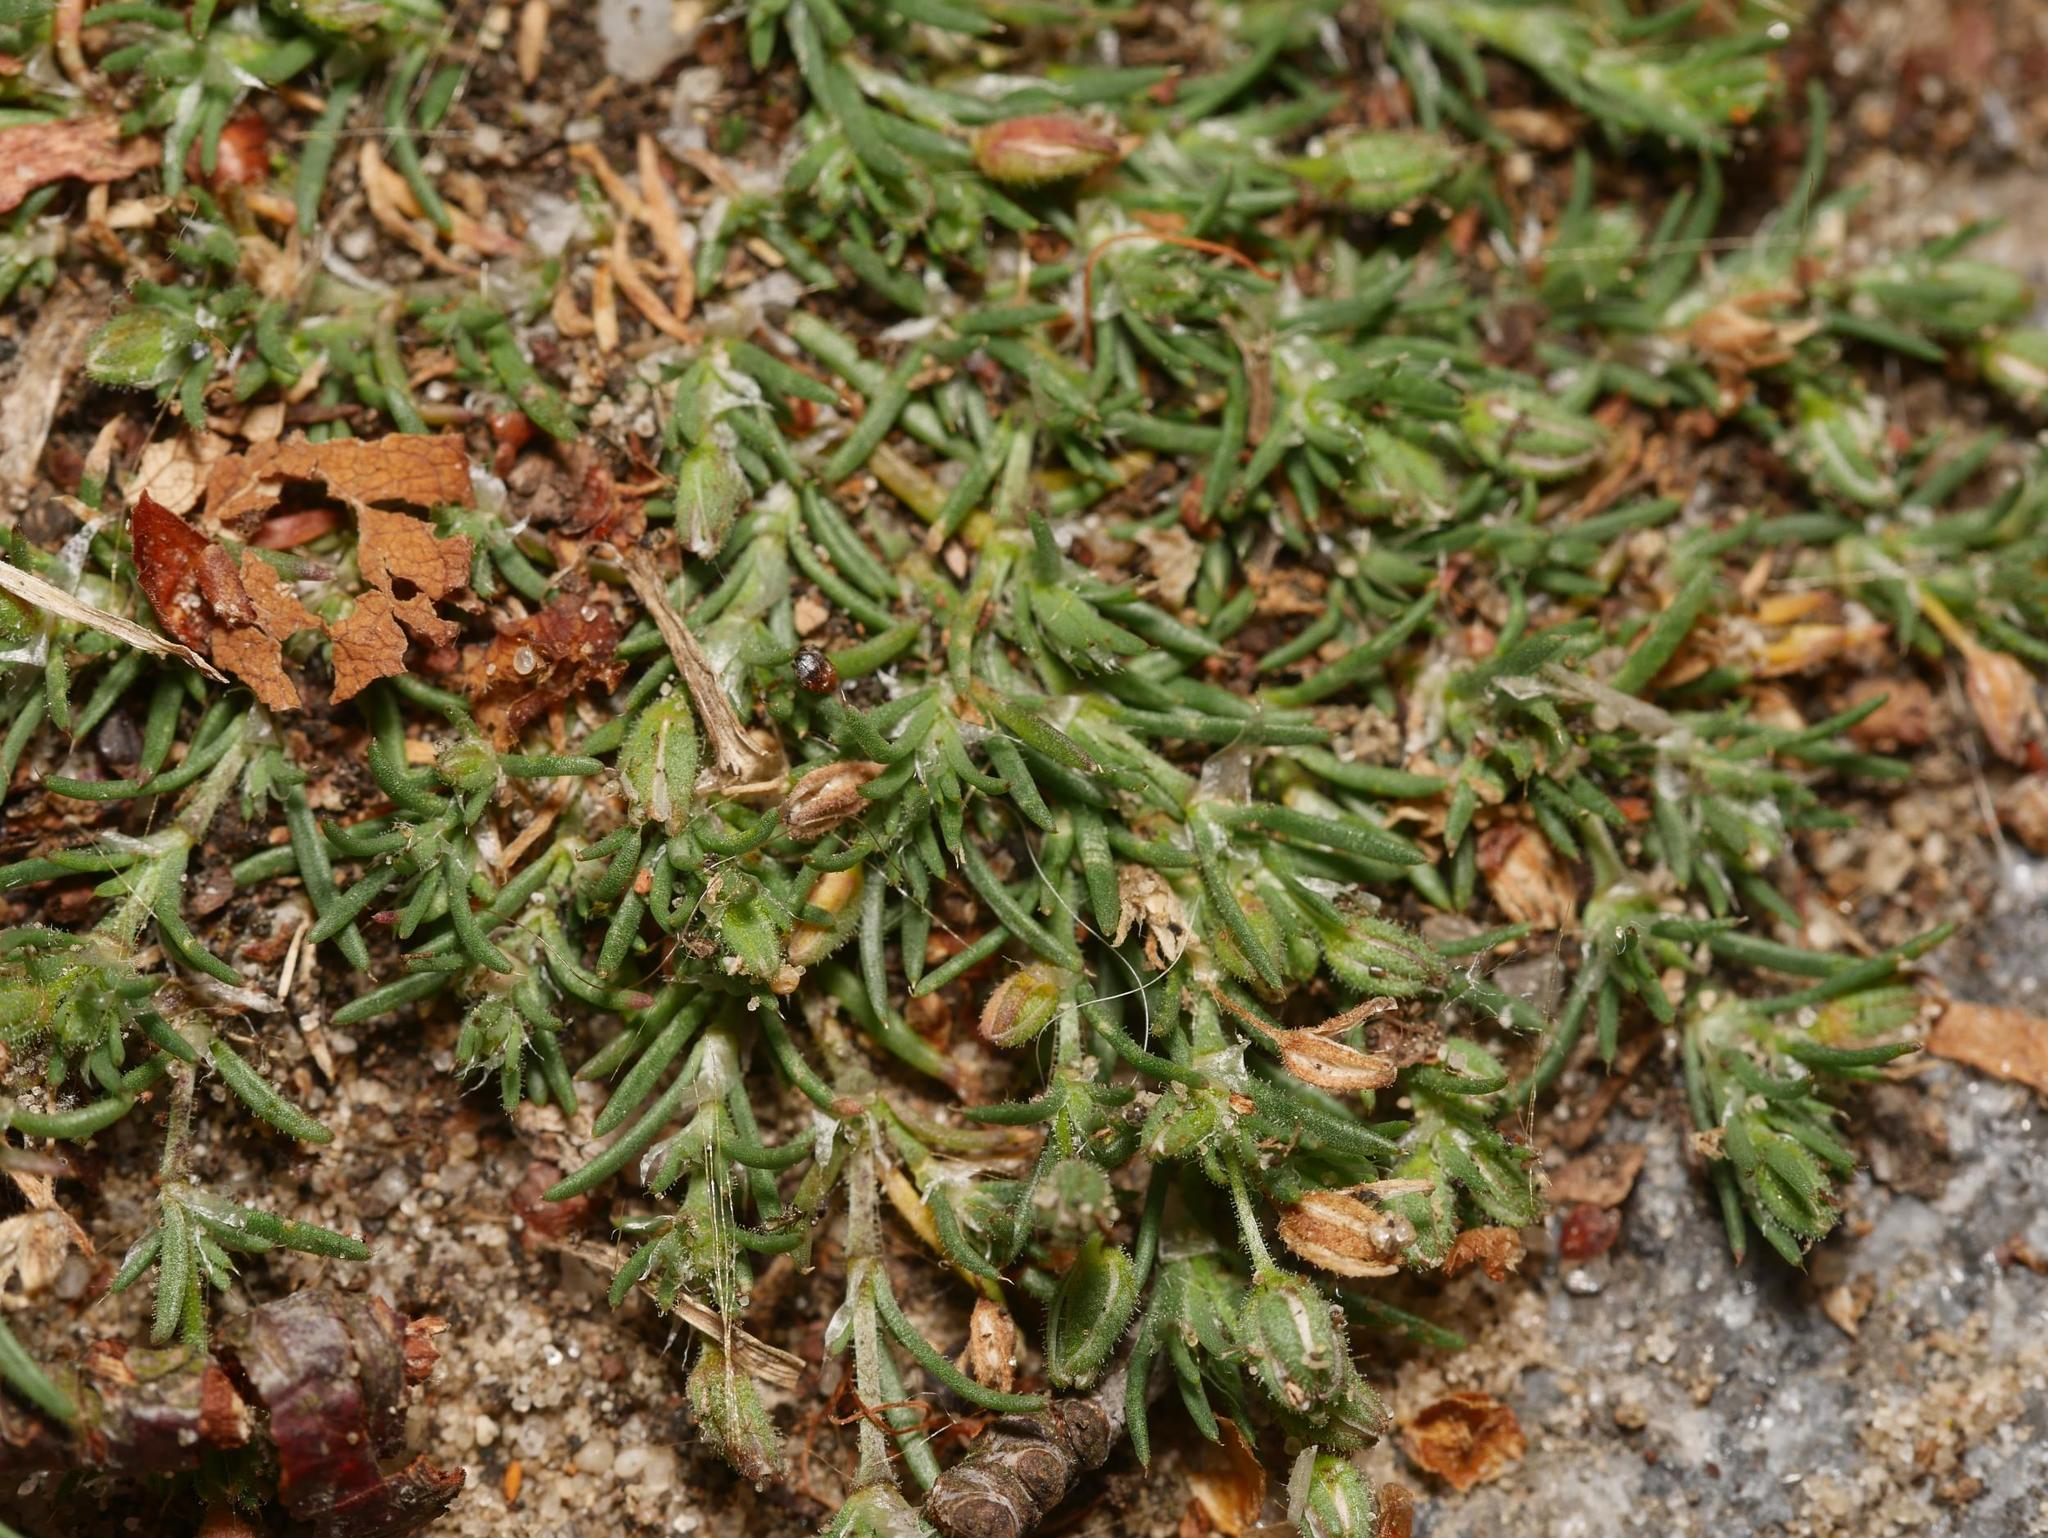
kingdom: Plantae
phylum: Tracheophyta
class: Magnoliopsida
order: Caryophyllales
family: Caryophyllaceae
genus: Spergularia
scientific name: Spergularia rubra
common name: Red sand-spurrey
